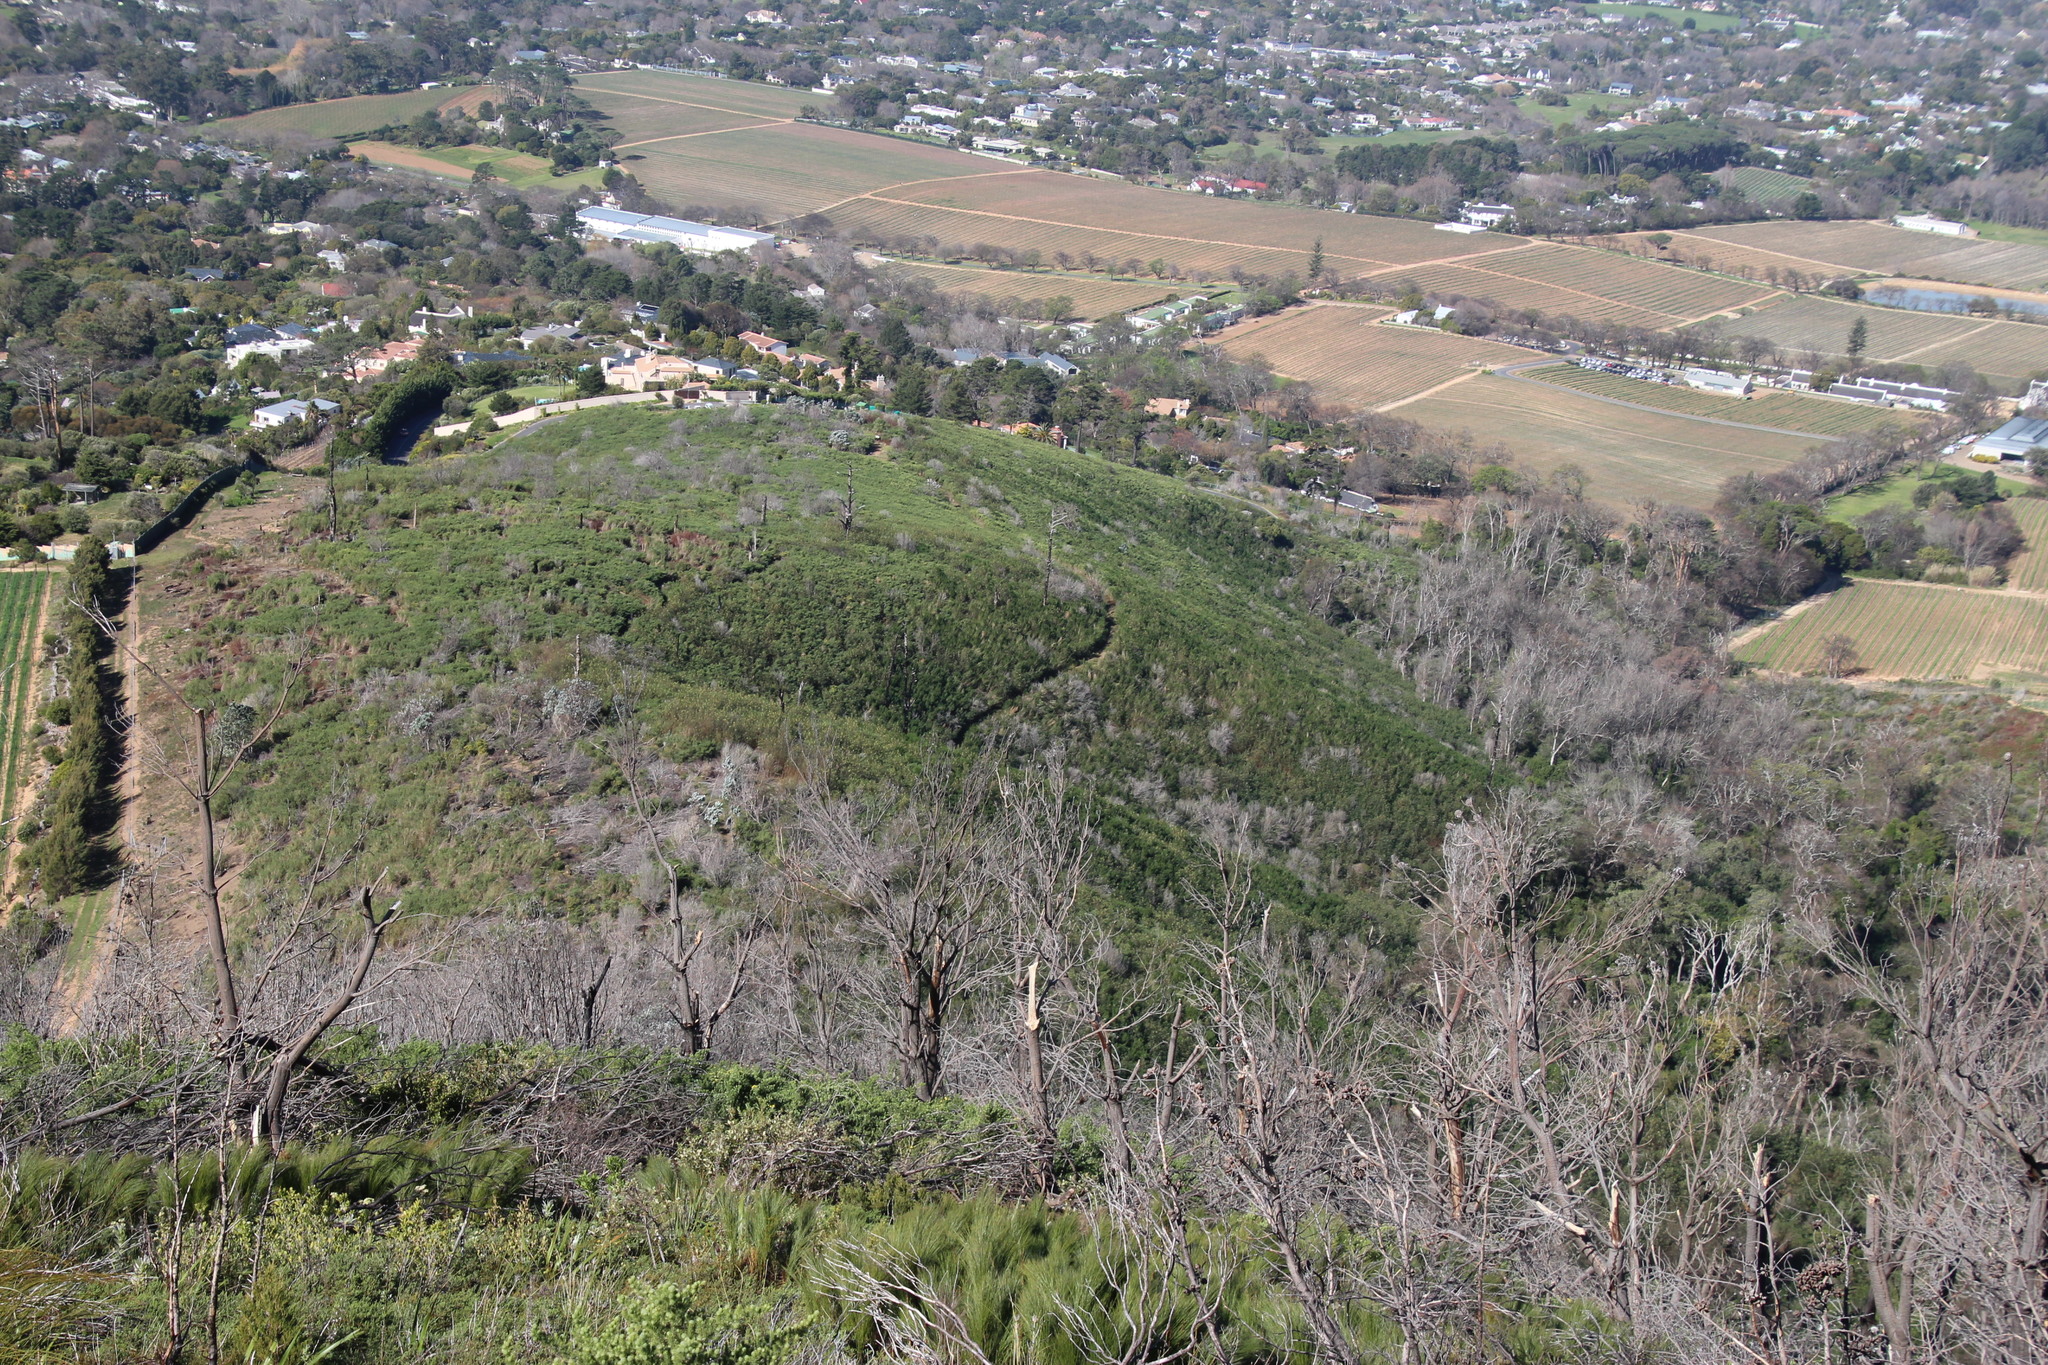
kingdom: Plantae
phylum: Tracheophyta
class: Magnoliopsida
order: Proteales
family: Proteaceae
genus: Leucadendron
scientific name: Leucadendron argenteum
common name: Cape silver tree
